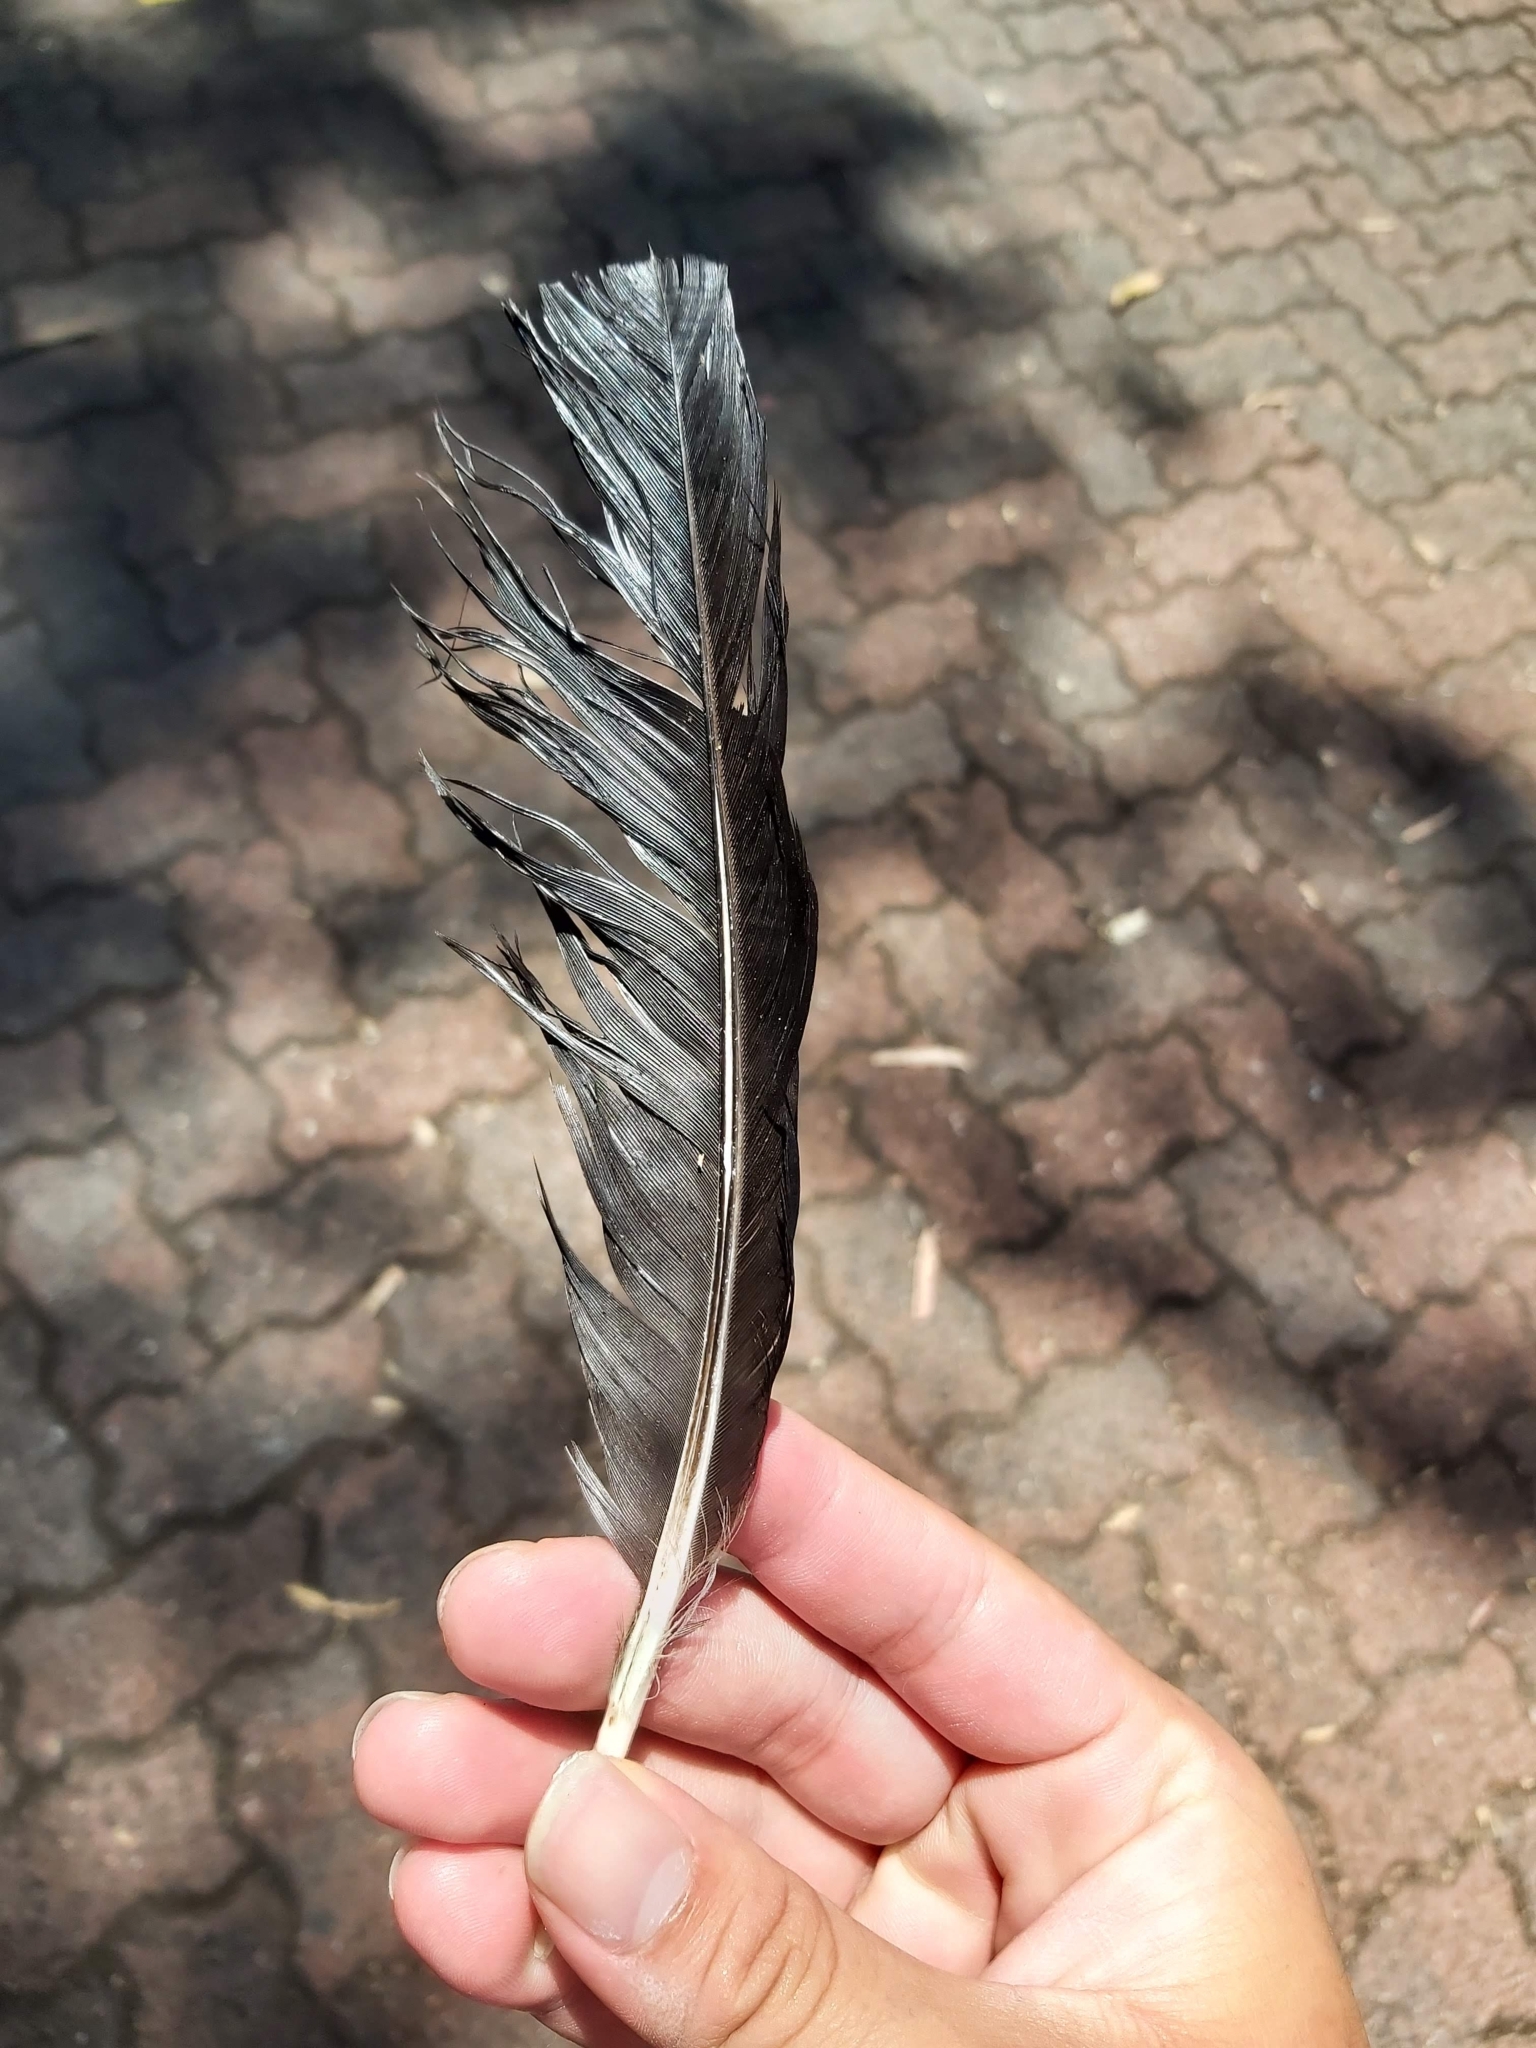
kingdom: Animalia
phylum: Chordata
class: Aves
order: Galliformes
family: Megapodiidae
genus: Alectura
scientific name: Alectura lathami
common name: Australian brushturkey
